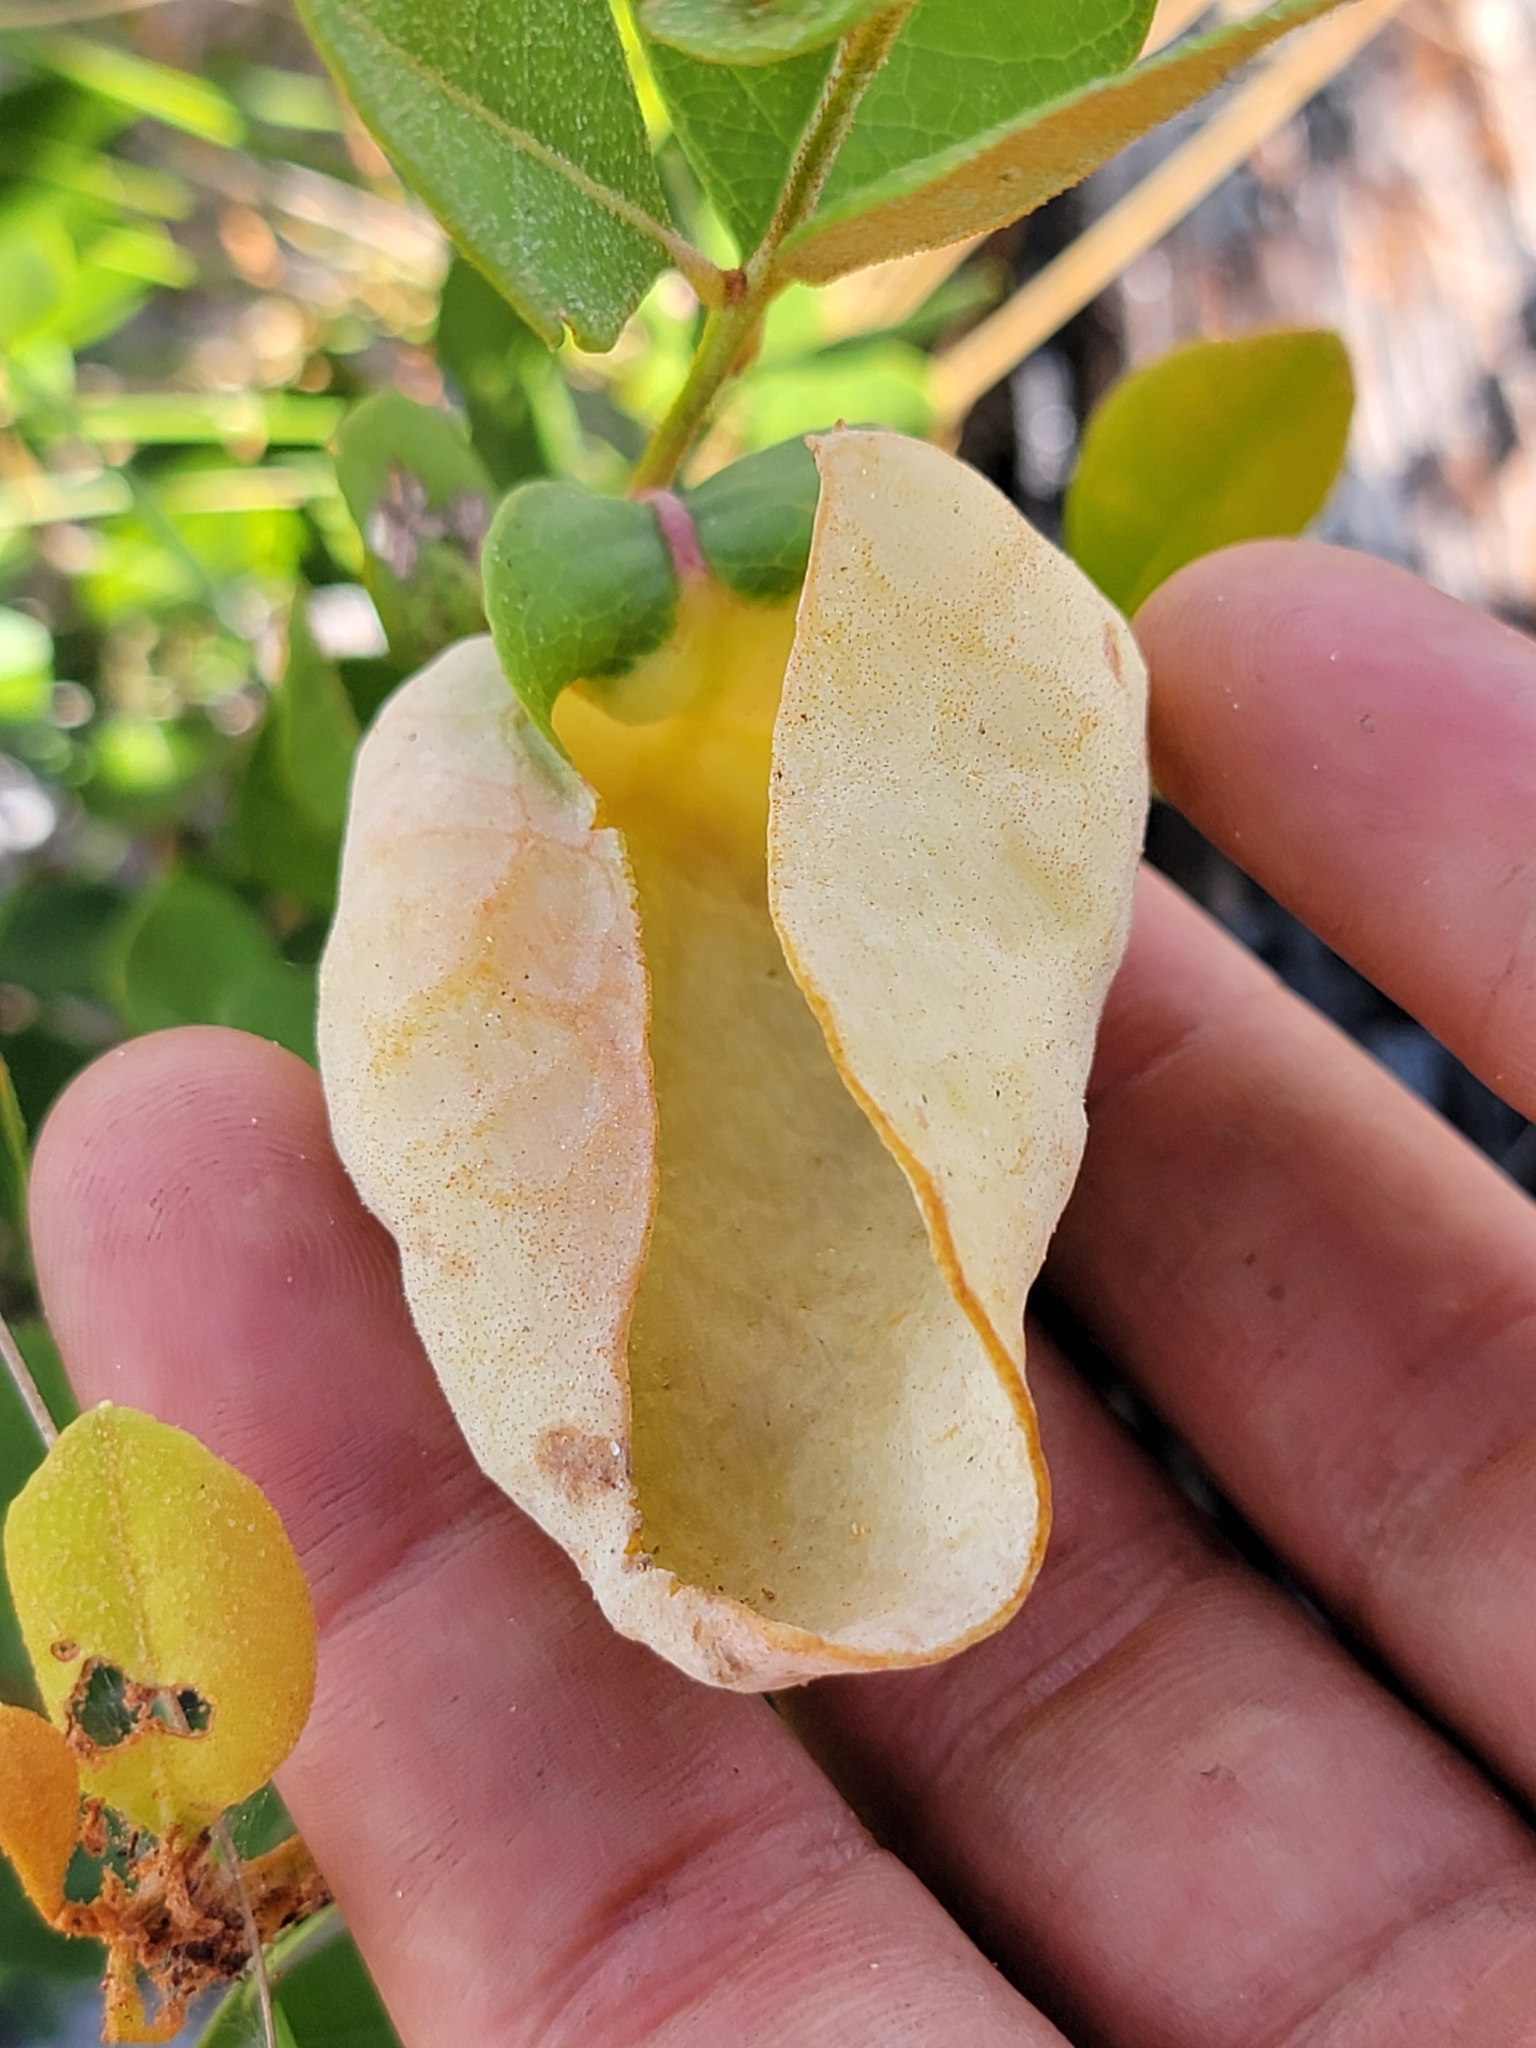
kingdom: Fungi
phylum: Basidiomycota
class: Exobasidiomycetes
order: Exobasidiales
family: Exobasidiaceae
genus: Exobasidium
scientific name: Exobasidium ferrugineae
